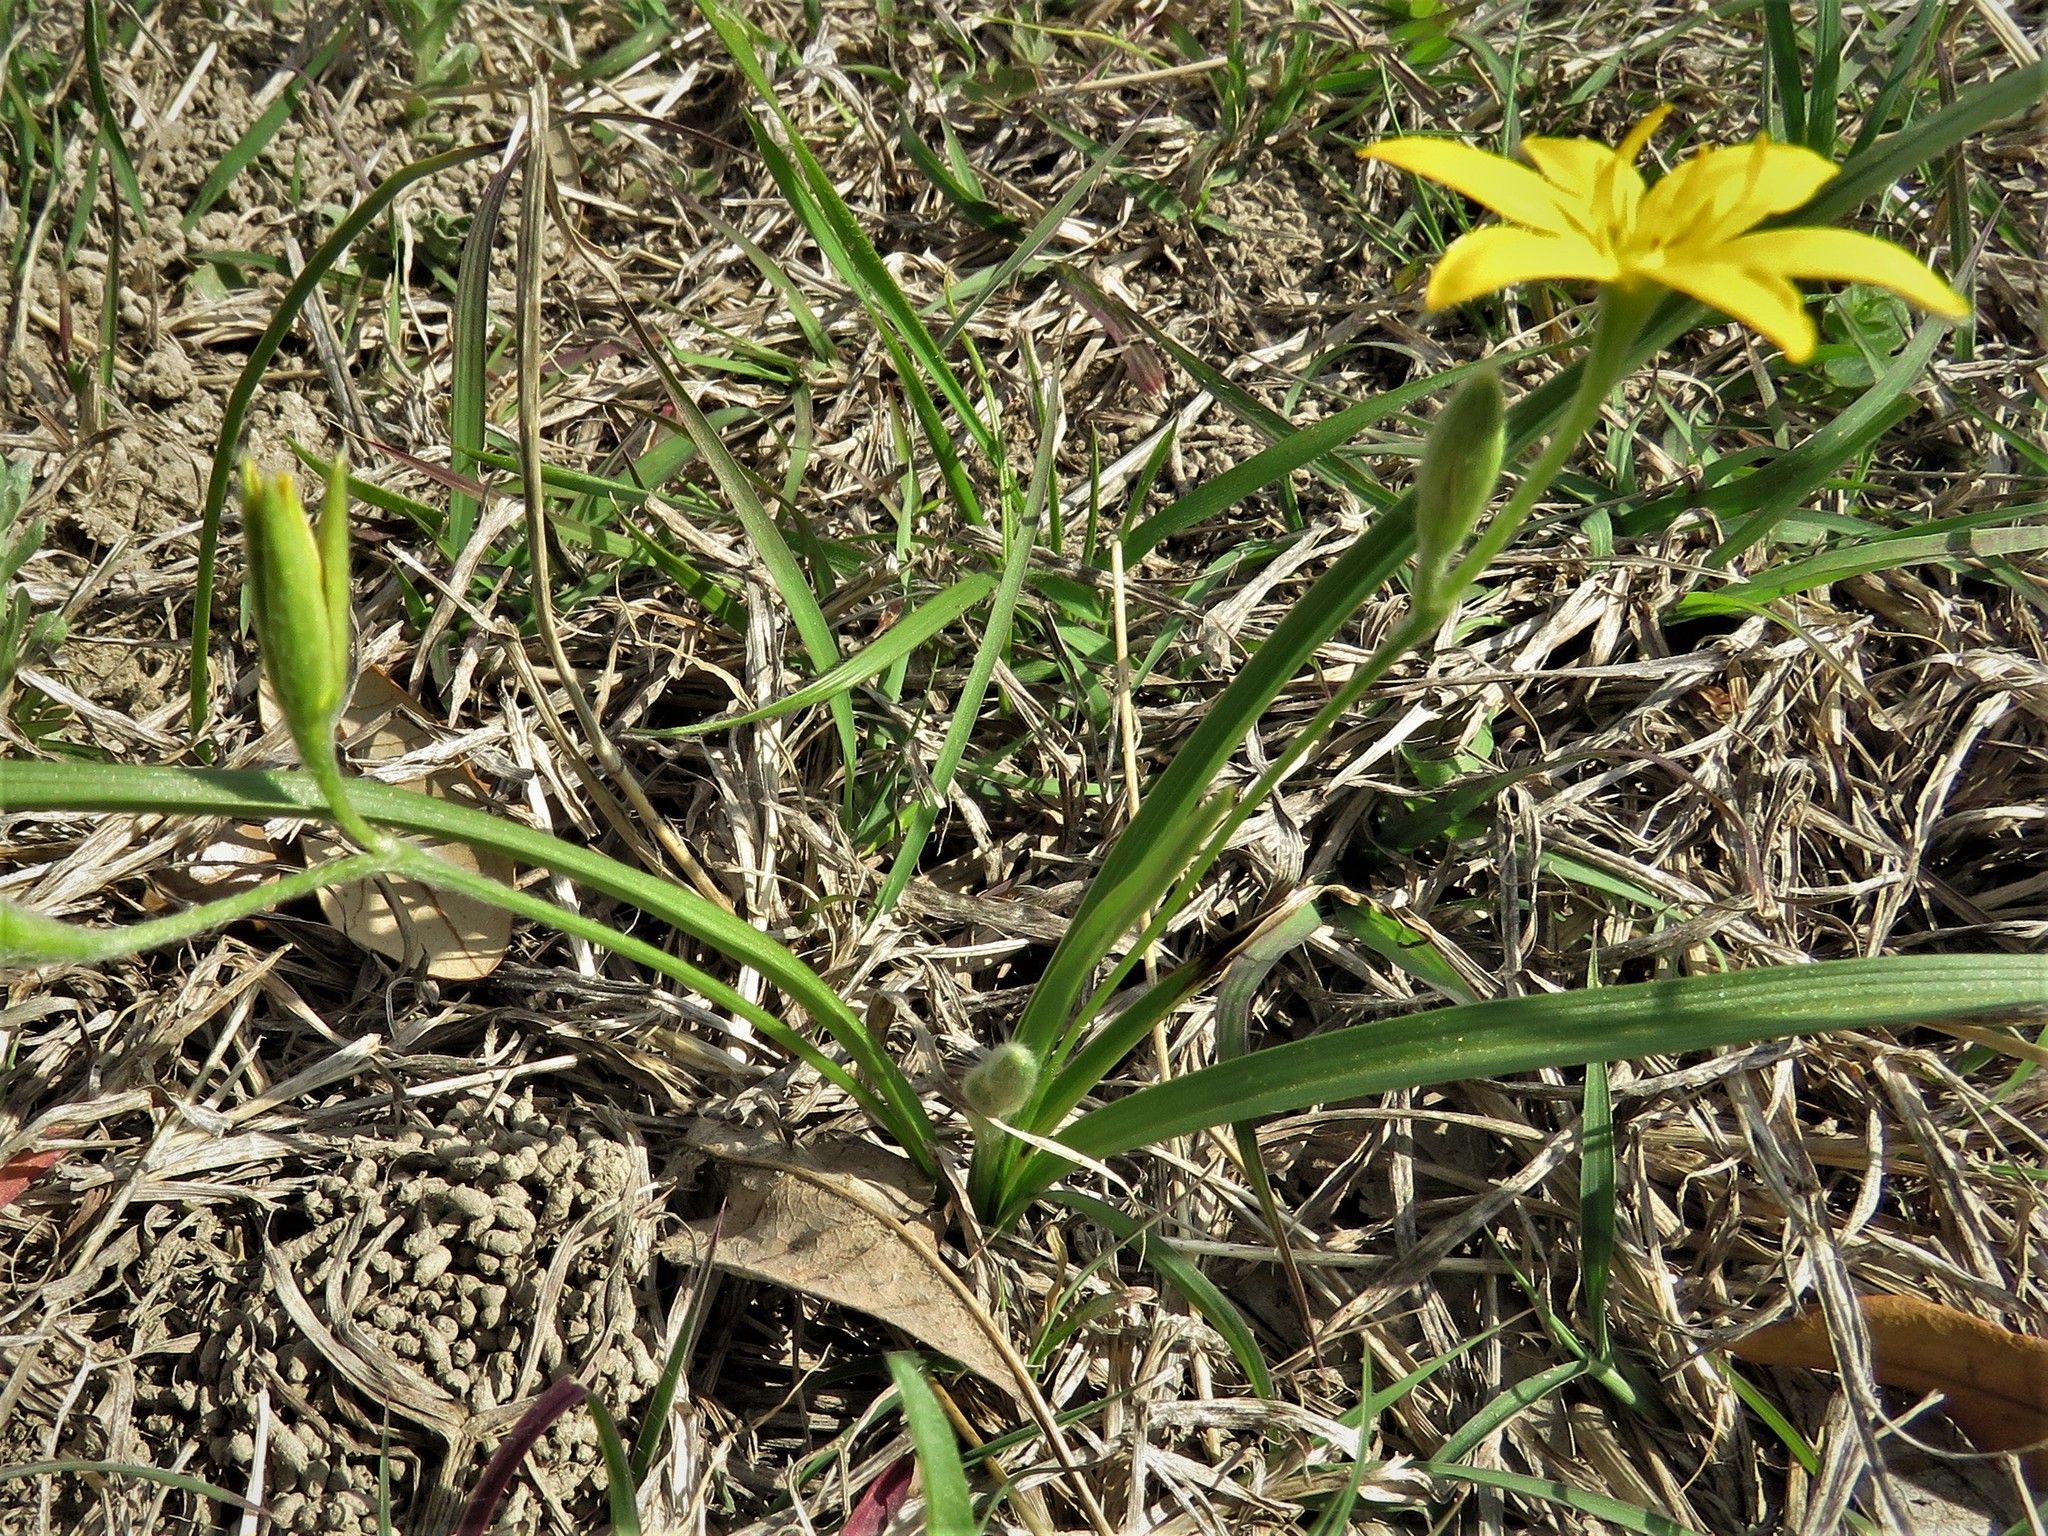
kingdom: Plantae
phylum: Tracheophyta
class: Liliopsida
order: Asparagales
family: Hypoxidaceae
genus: Hypoxis
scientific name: Hypoxis hirsuta
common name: Common goldstar
